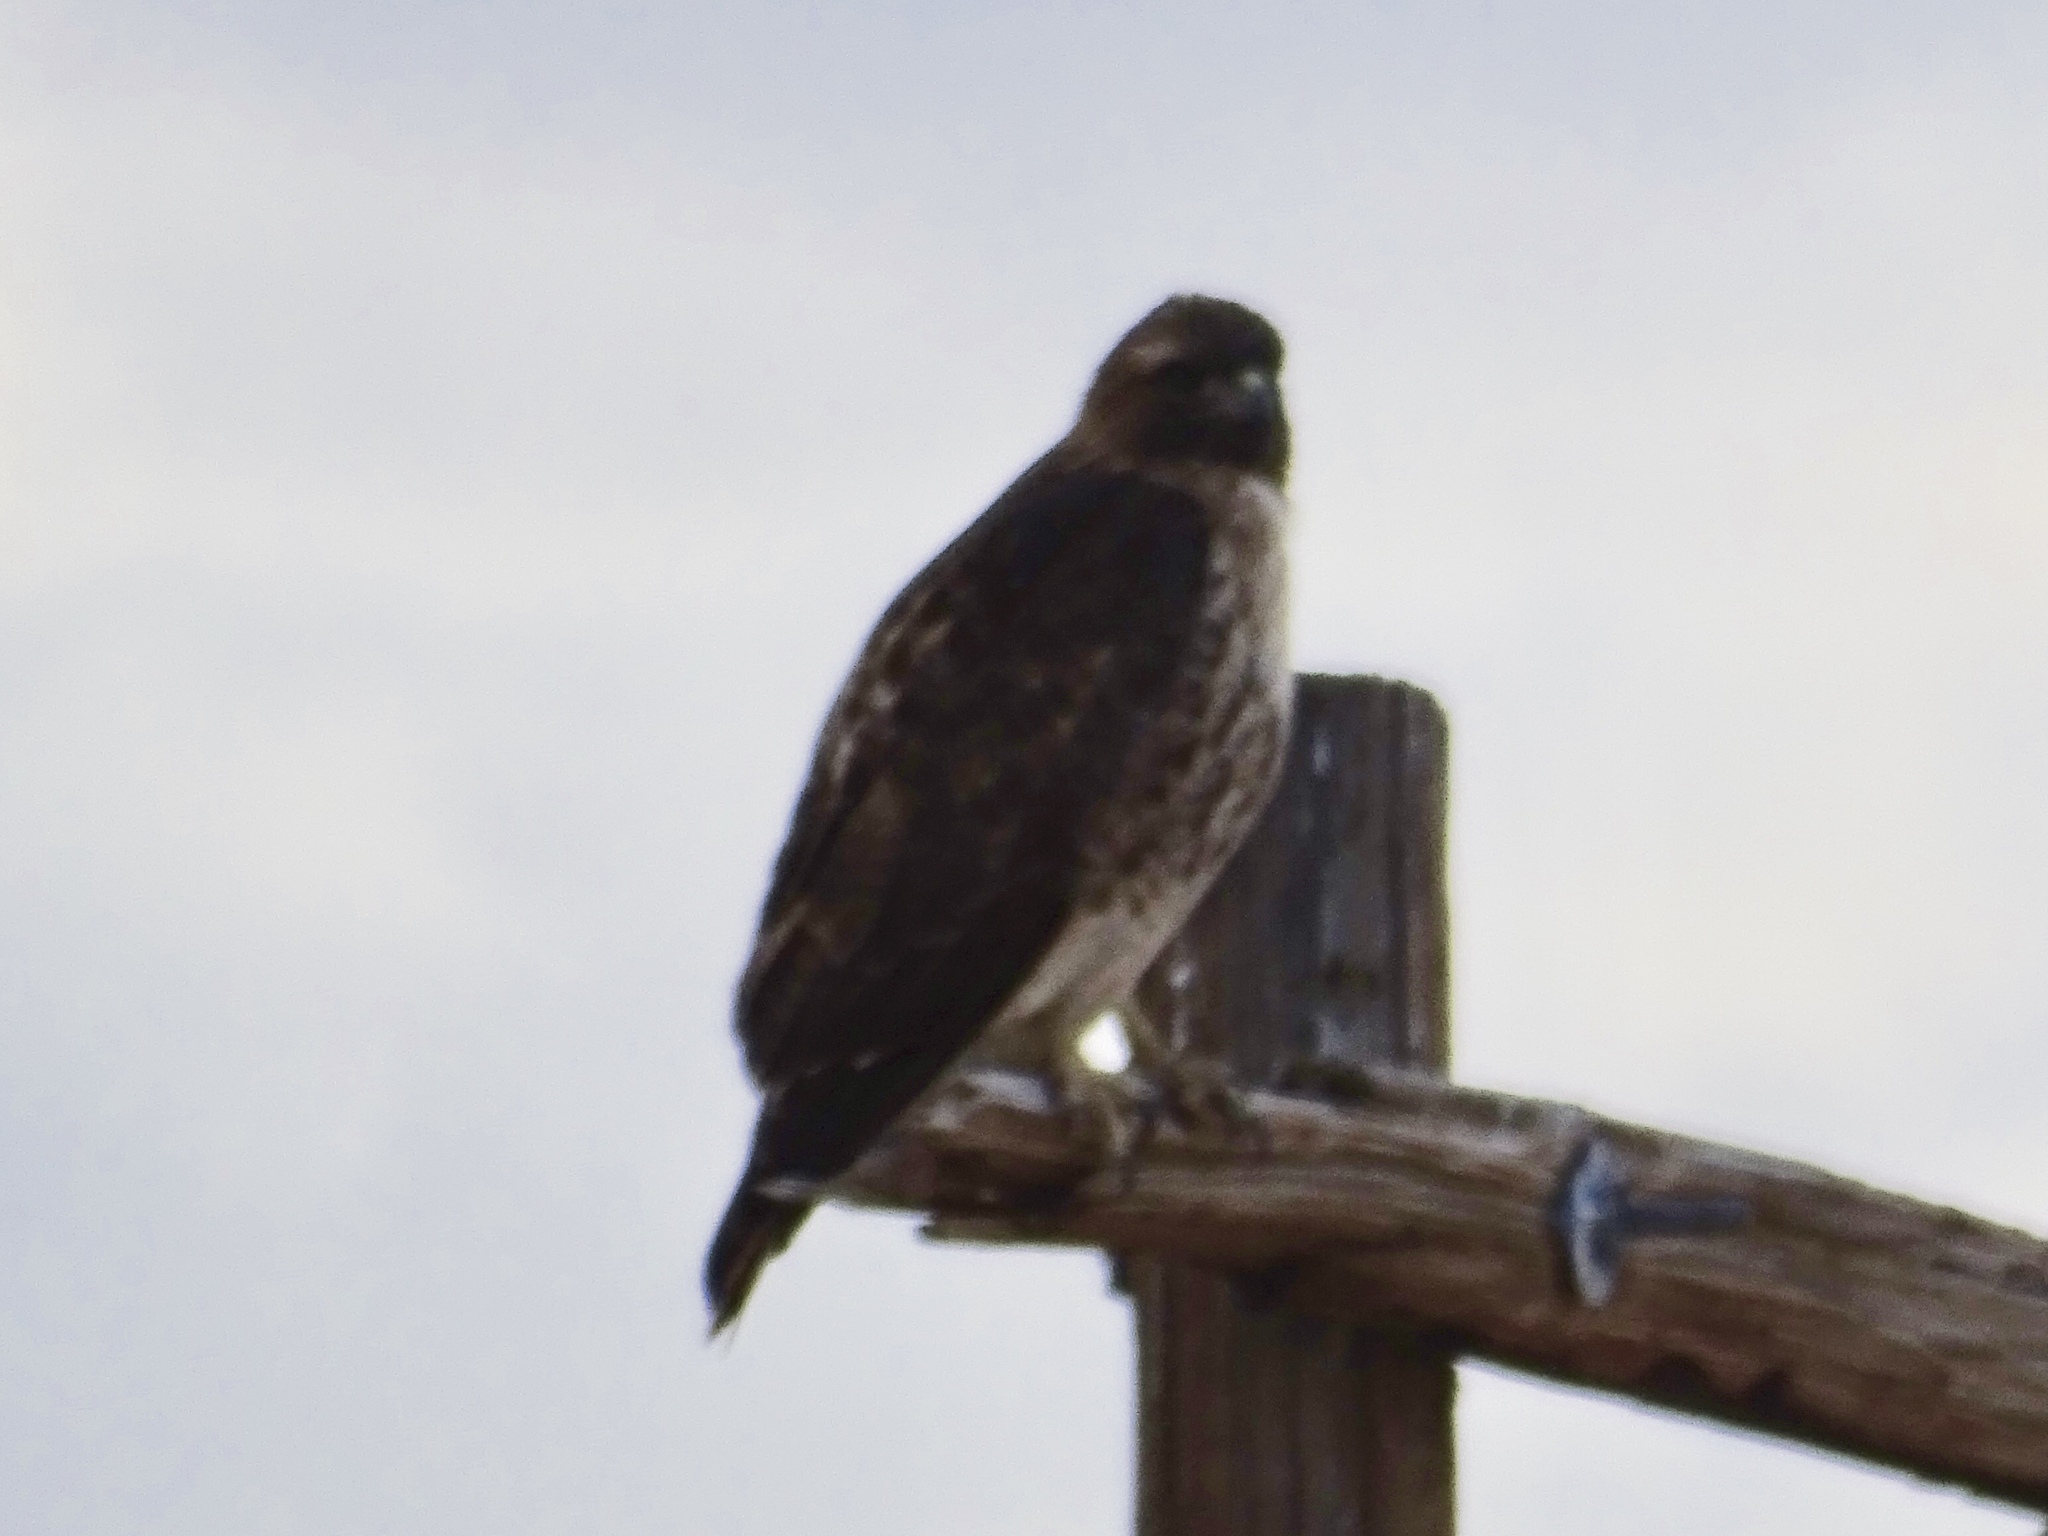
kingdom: Animalia
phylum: Chordata
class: Aves
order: Accipitriformes
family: Accipitridae
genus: Buteo
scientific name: Buteo jamaicensis
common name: Red-tailed hawk
